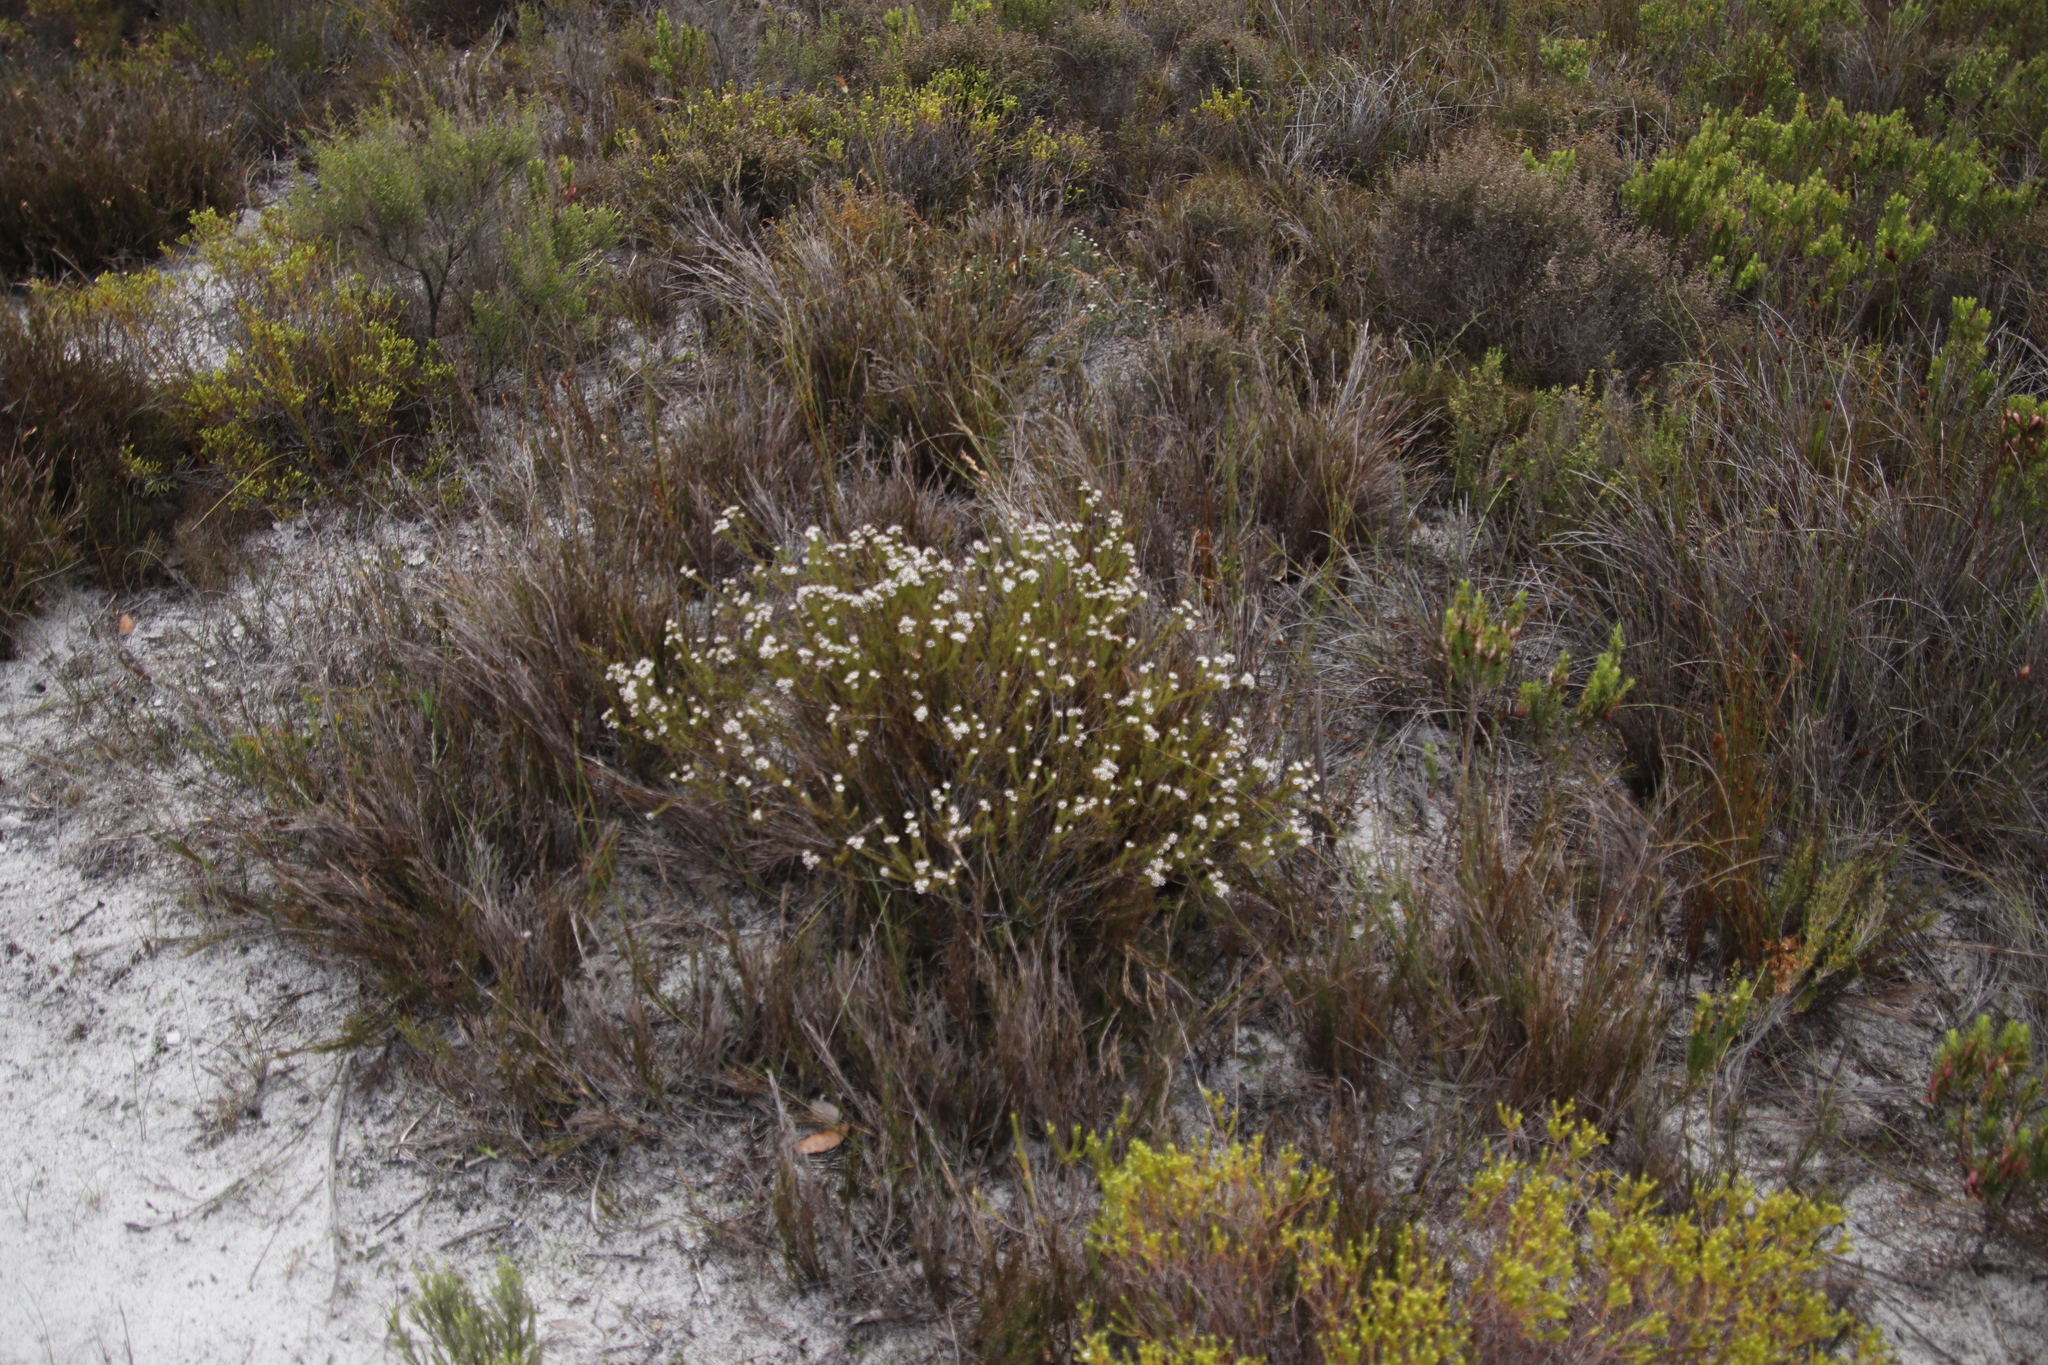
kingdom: Plantae
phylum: Tracheophyta
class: Magnoliopsida
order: Bruniales
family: Bruniaceae
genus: Staavia
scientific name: Staavia radiata
